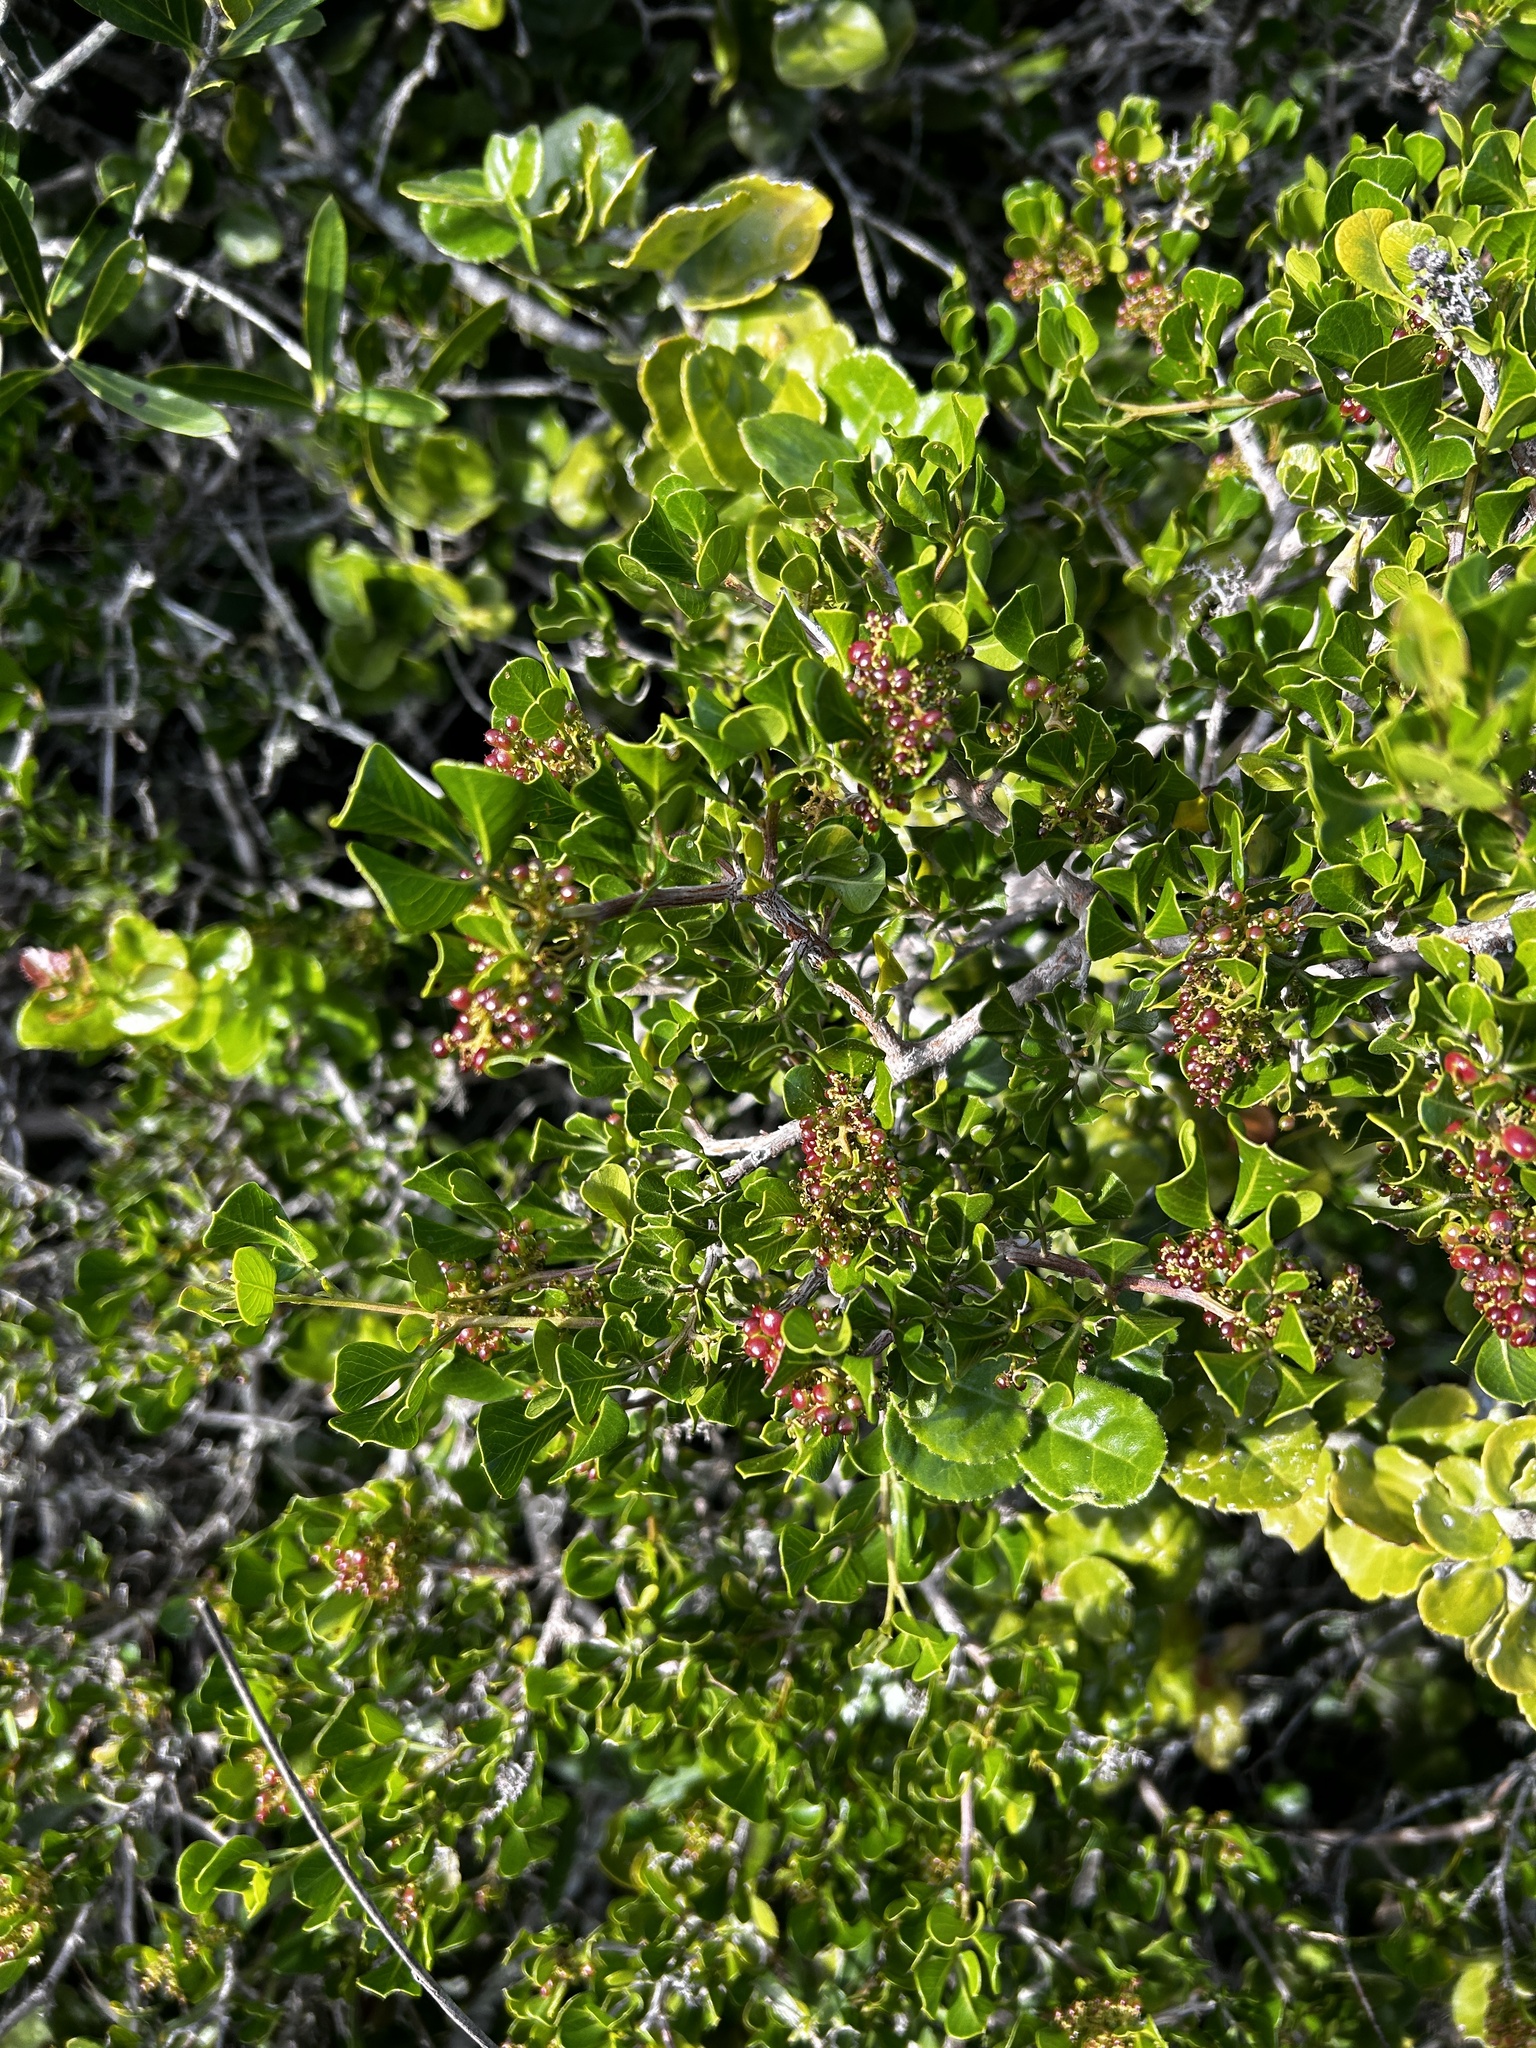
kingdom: Plantae
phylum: Tracheophyta
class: Magnoliopsida
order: Sapindales
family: Anacardiaceae
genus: Searsia
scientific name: Searsia glauca
